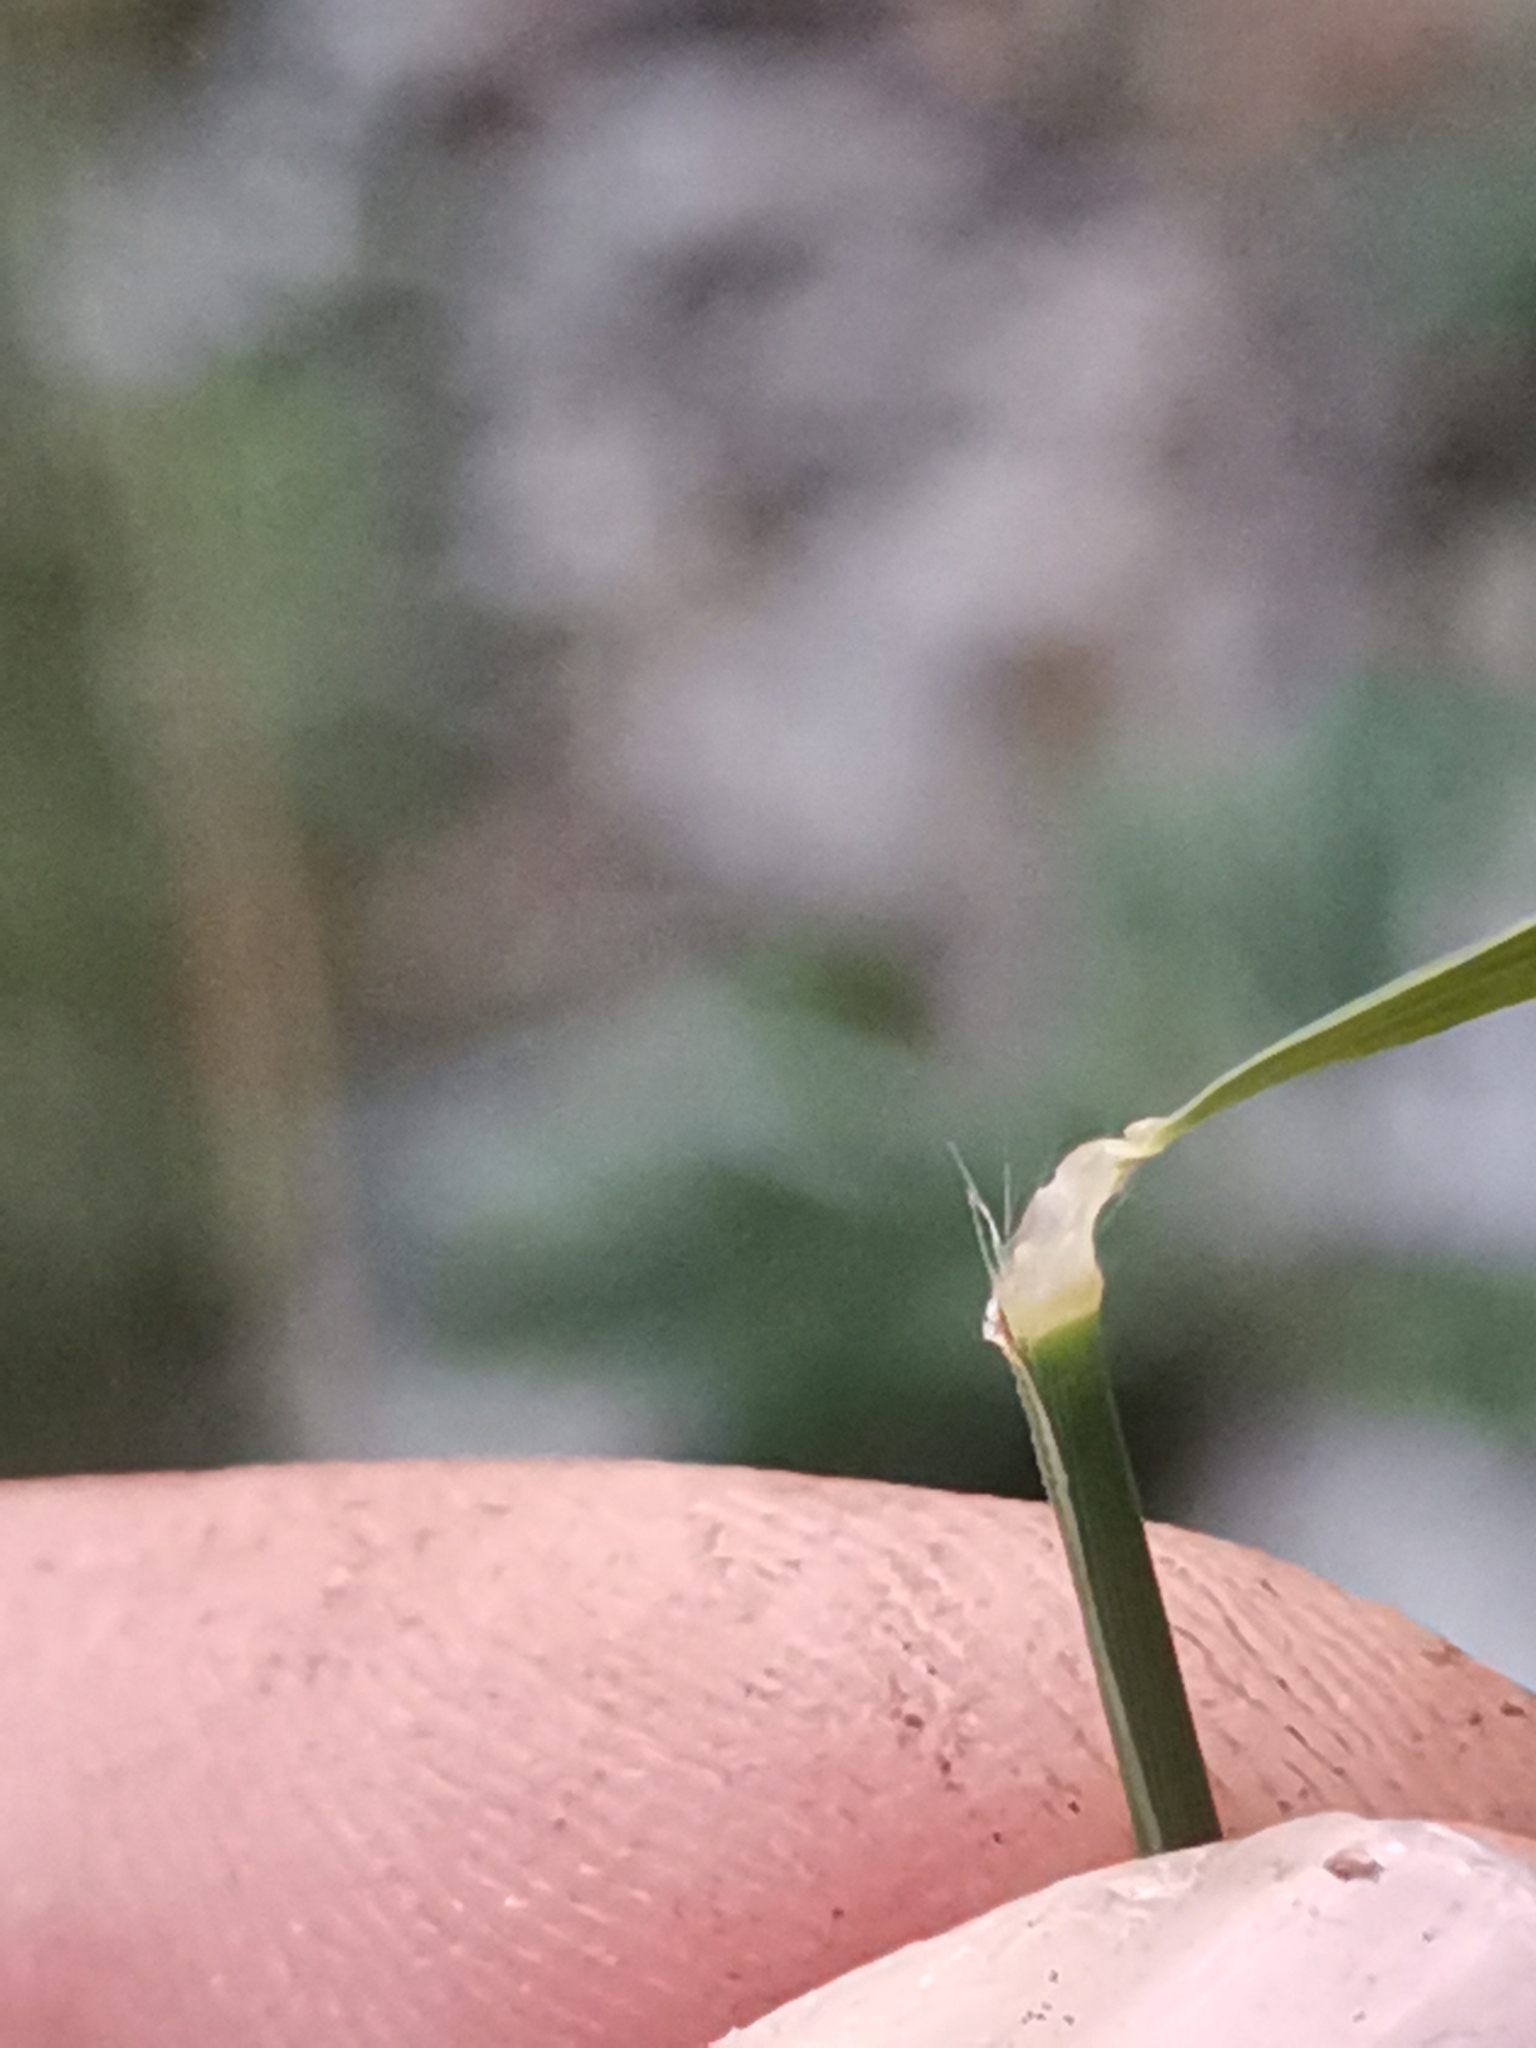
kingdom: Plantae
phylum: Tracheophyta
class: Liliopsida
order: Poales
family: Poaceae
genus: Cleistogenes
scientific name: Cleistogenes serotina
